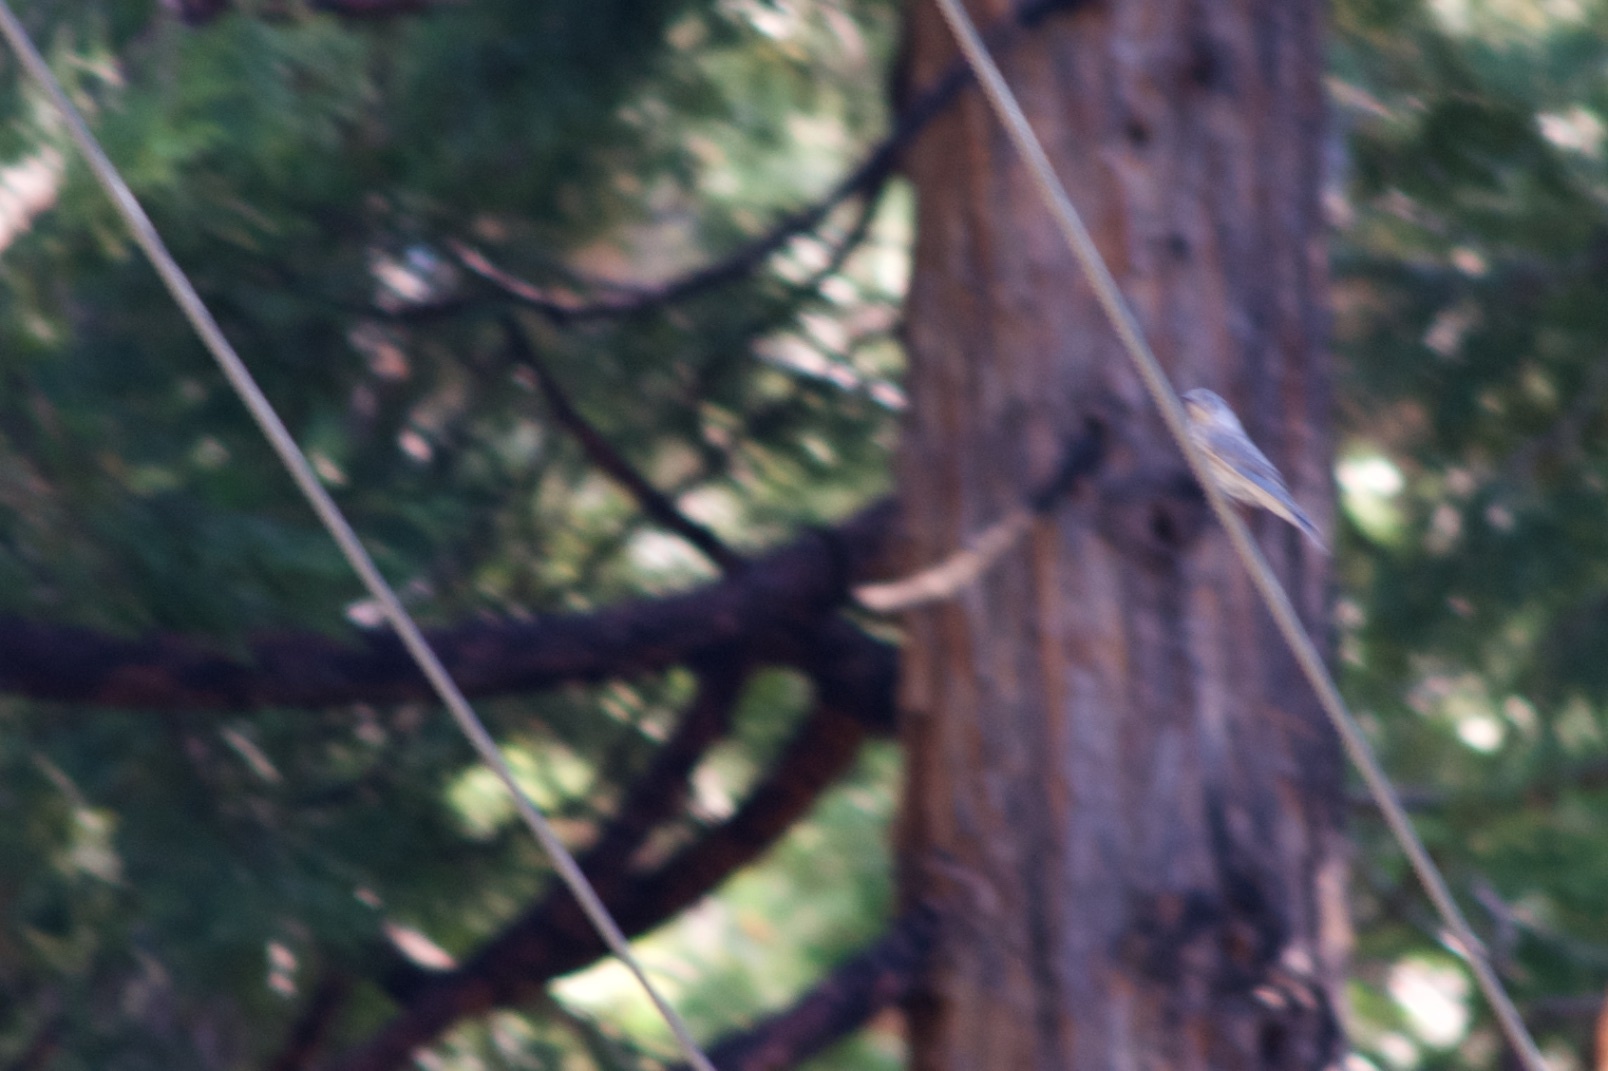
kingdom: Animalia
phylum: Chordata
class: Aves
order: Passeriformes
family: Turdidae
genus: Sialia
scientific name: Sialia mexicana
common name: Western bluebird
